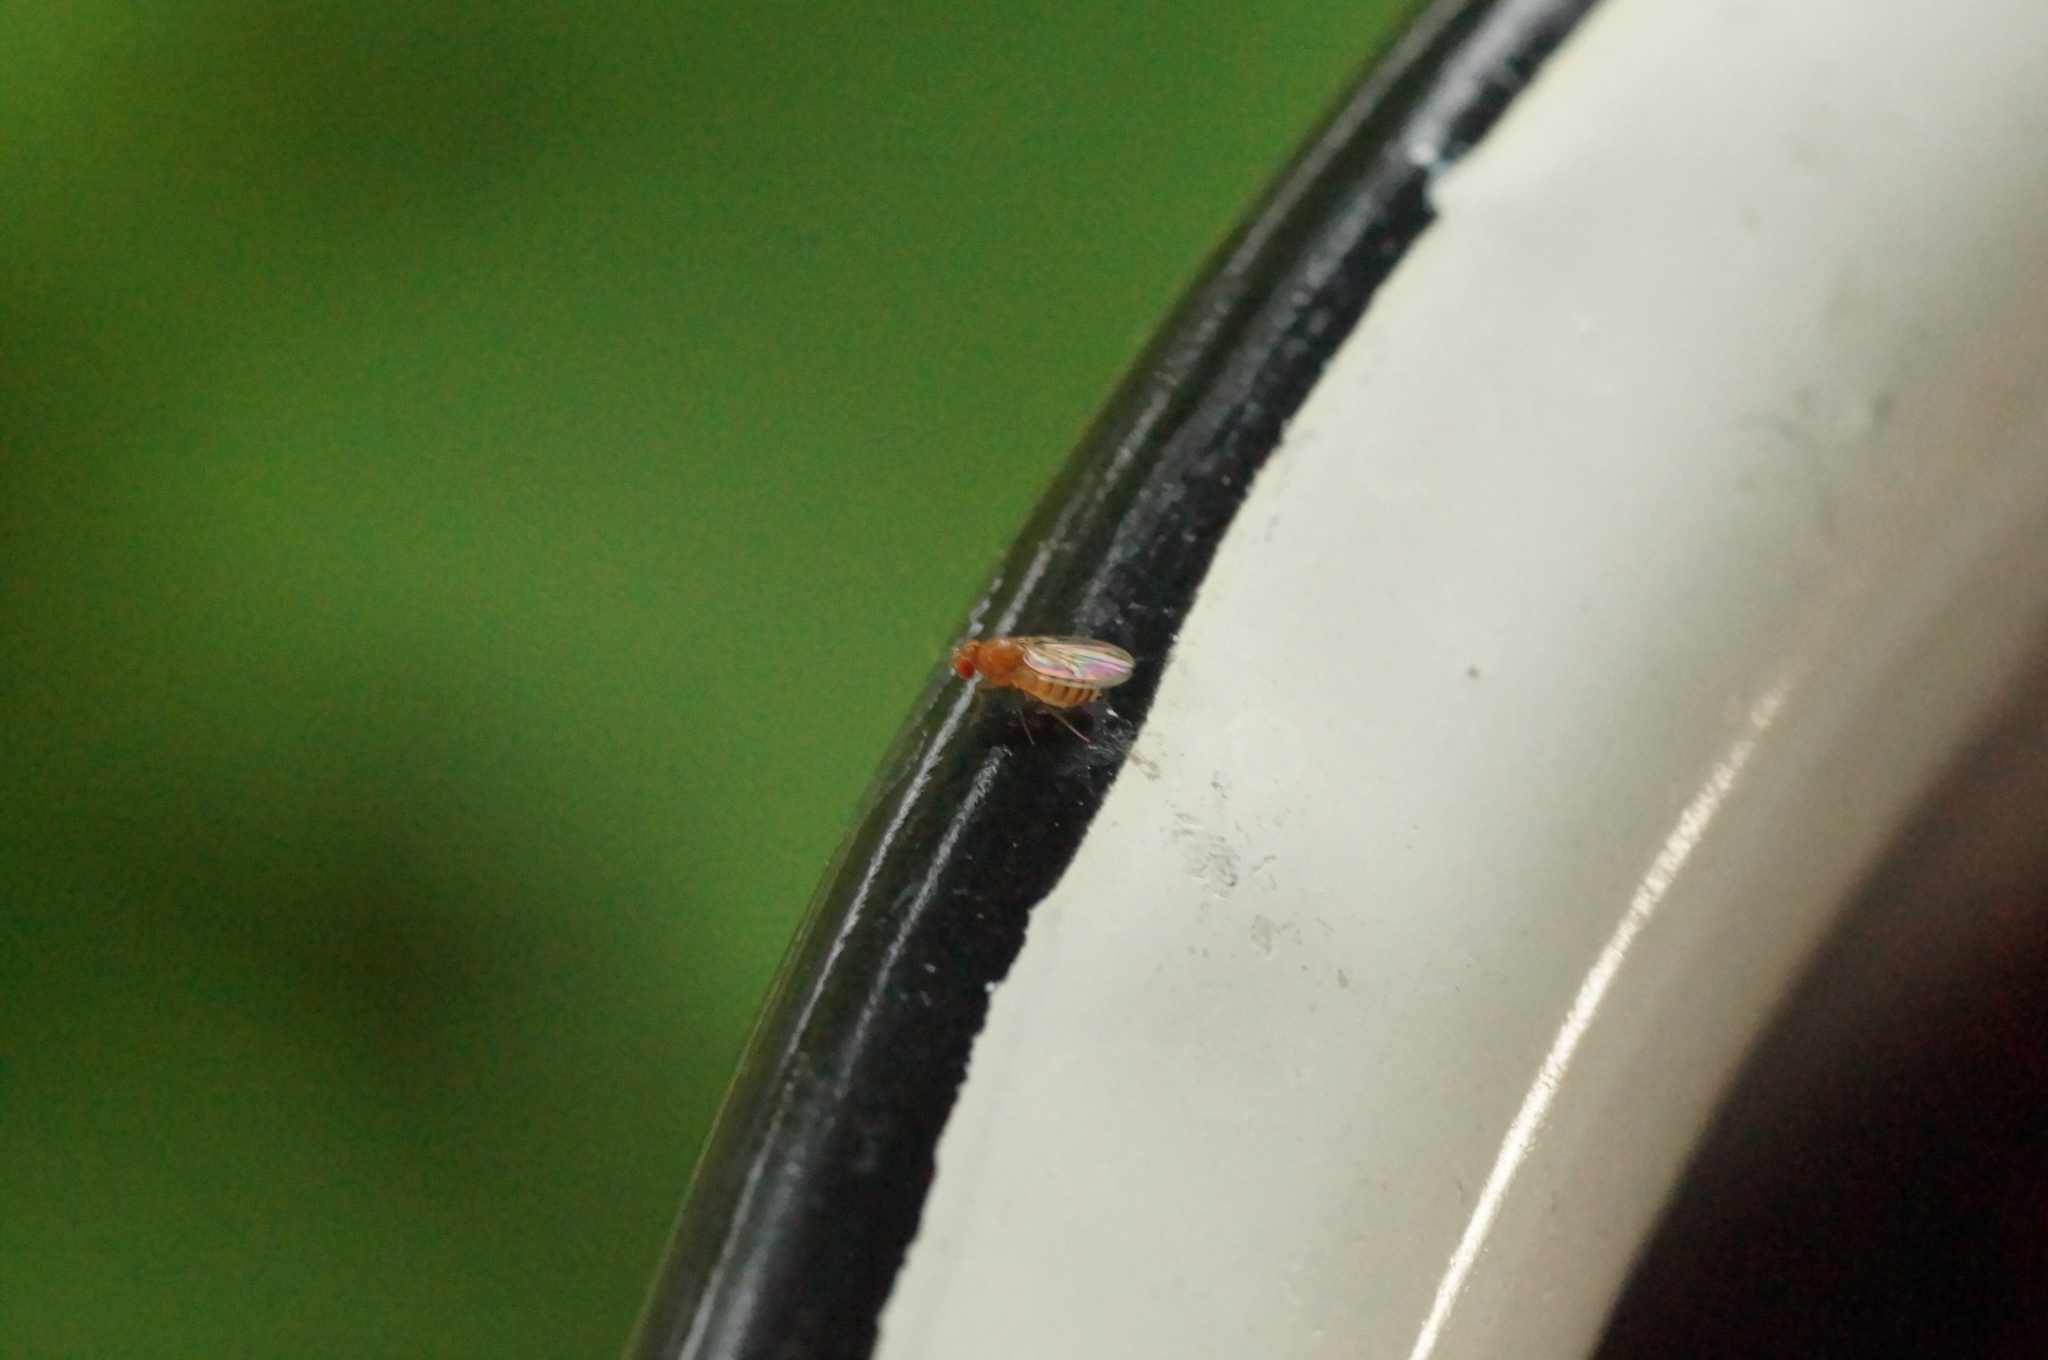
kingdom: Animalia
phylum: Arthropoda
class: Insecta
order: Diptera
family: Drosophilidae
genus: Drosophila
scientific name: Drosophila
